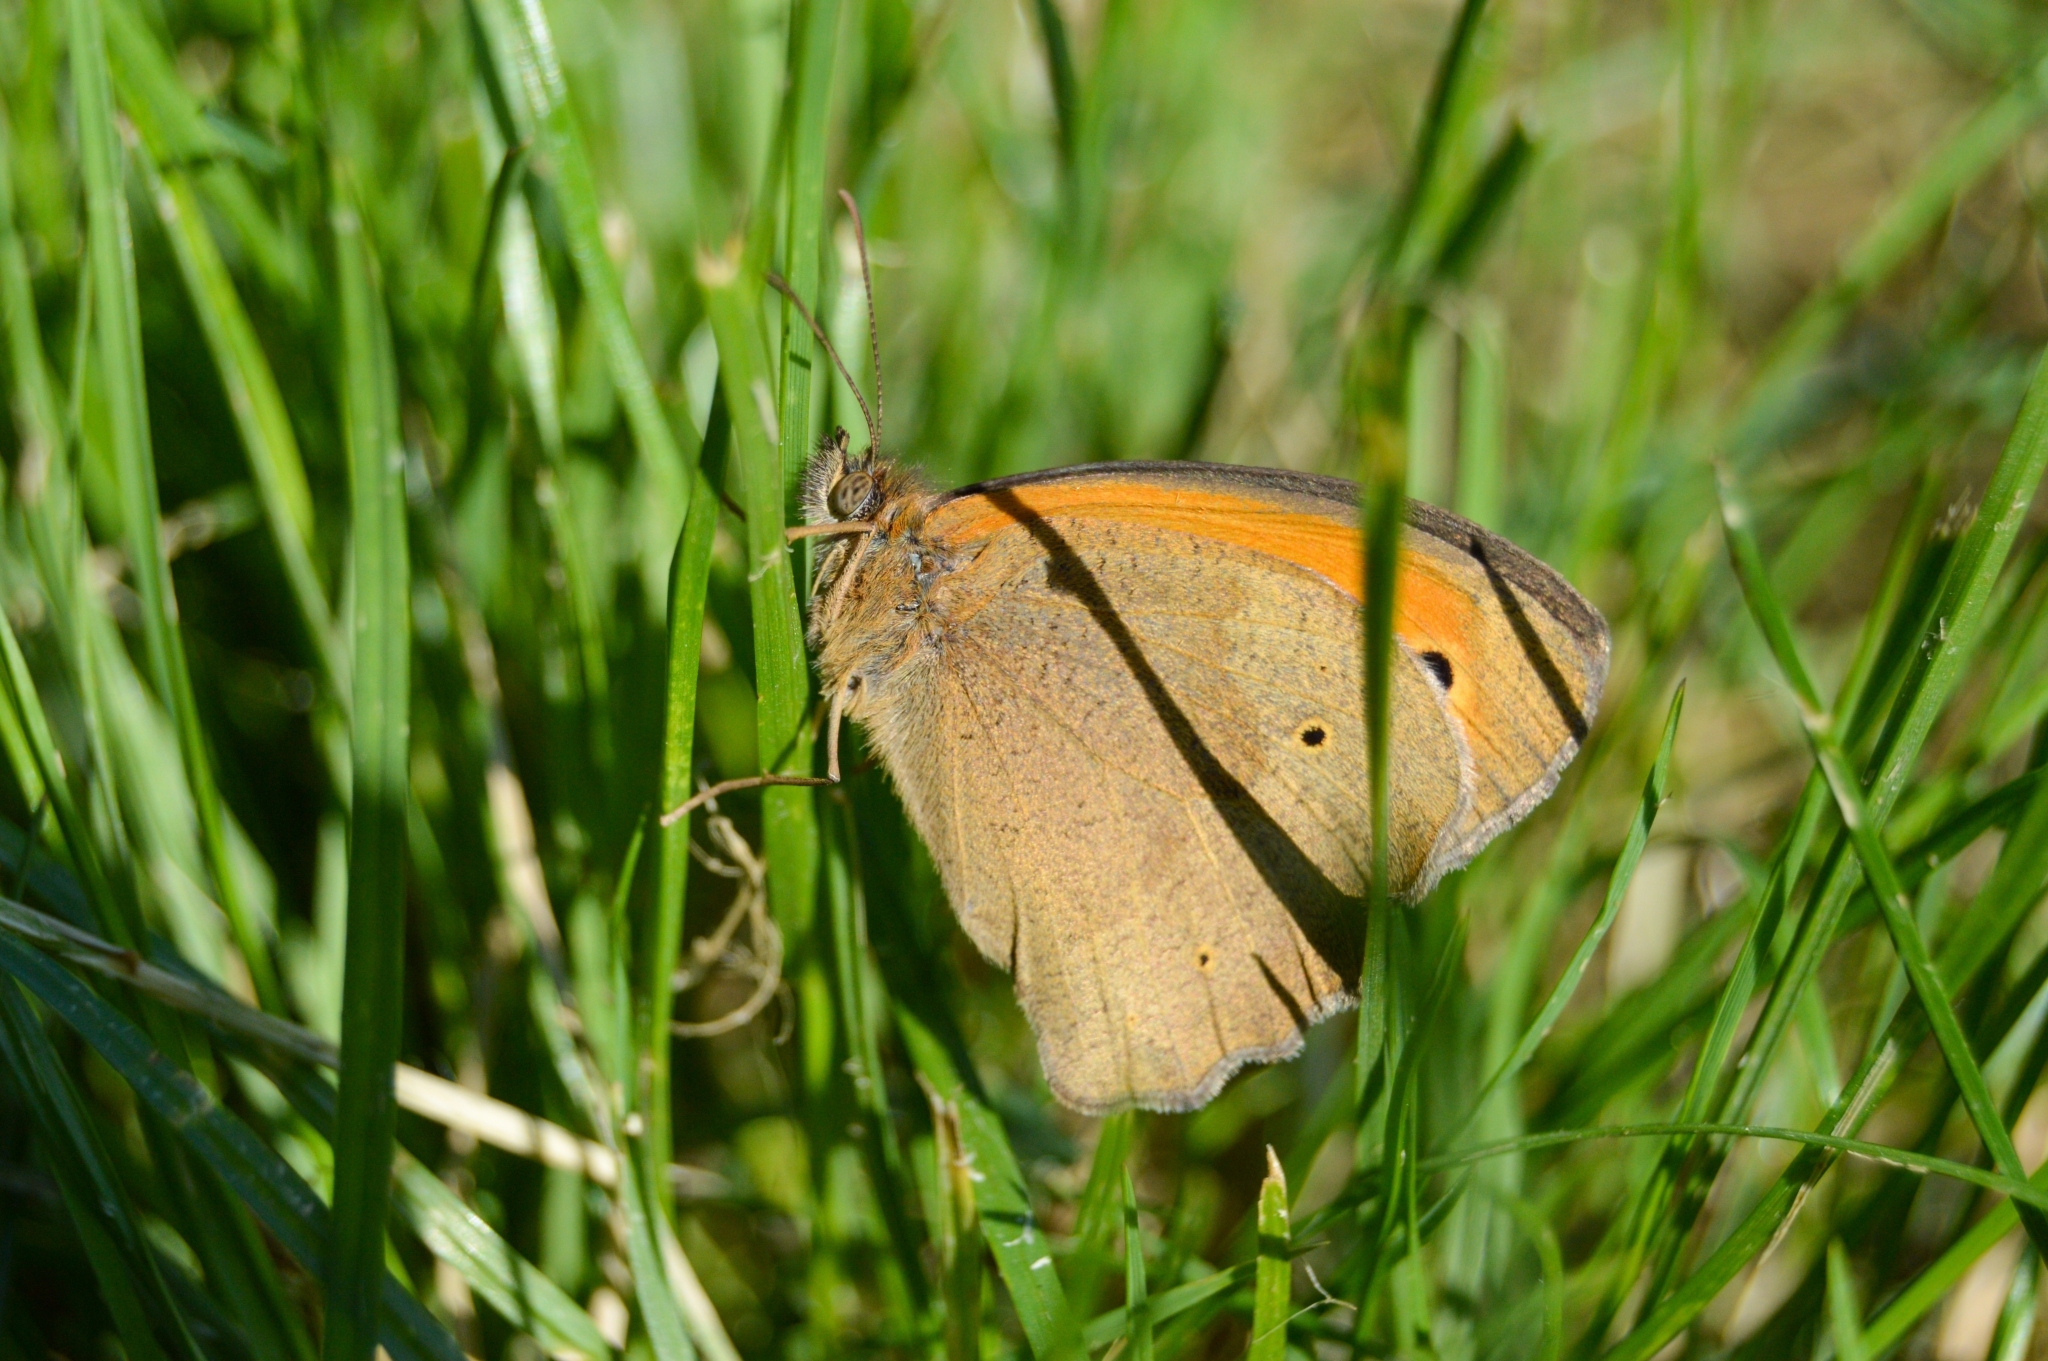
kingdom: Animalia
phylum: Arthropoda
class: Insecta
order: Lepidoptera
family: Nymphalidae
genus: Maniola
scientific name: Maniola jurtina
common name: Meadow brown
